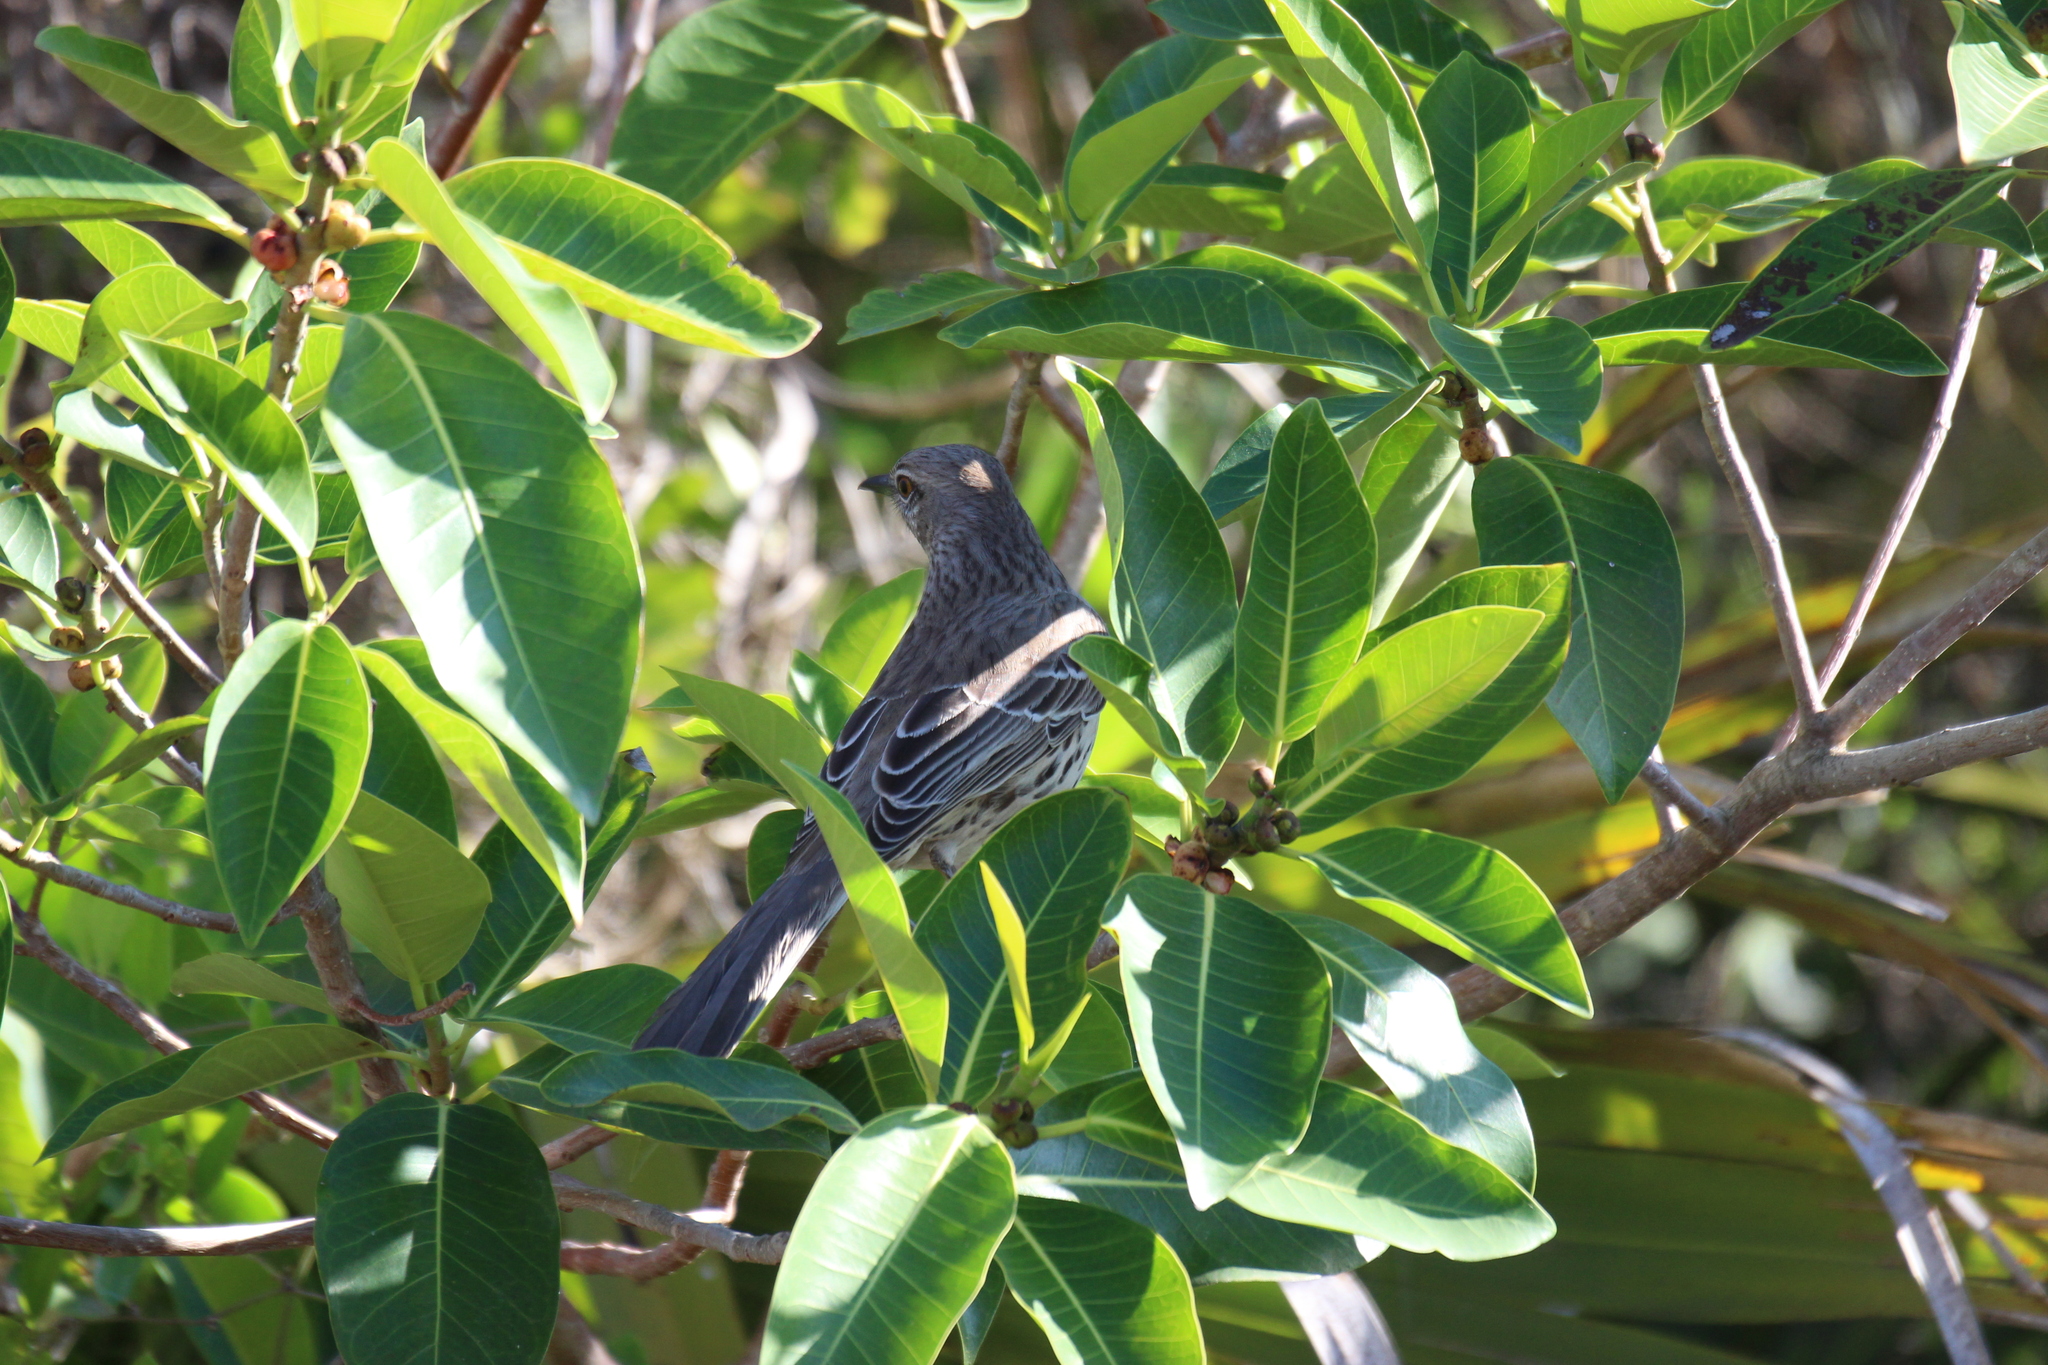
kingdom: Animalia
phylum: Chordata
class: Aves
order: Passeriformes
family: Mimidae
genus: Mimus
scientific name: Mimus gundlachii
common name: Bahama mockingbird
